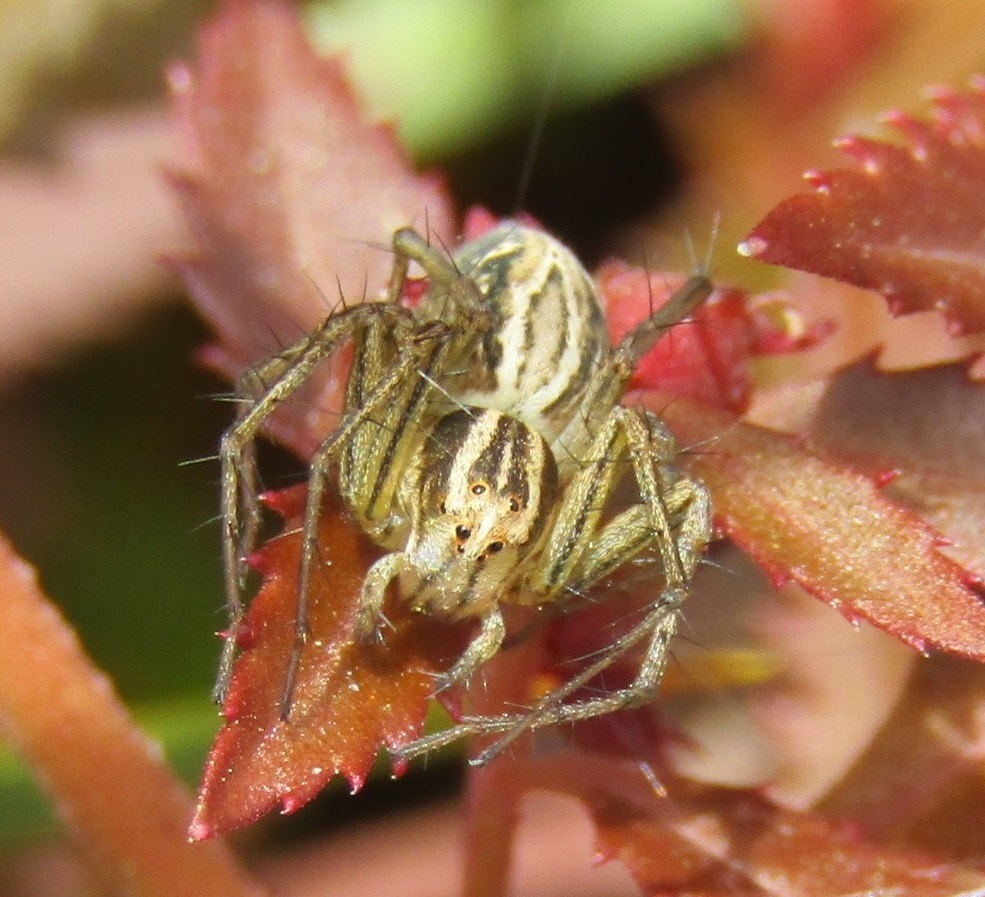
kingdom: Animalia
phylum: Arthropoda
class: Arachnida
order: Araneae
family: Oxyopidae
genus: Oxyopes
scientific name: Oxyopes gracilipes
